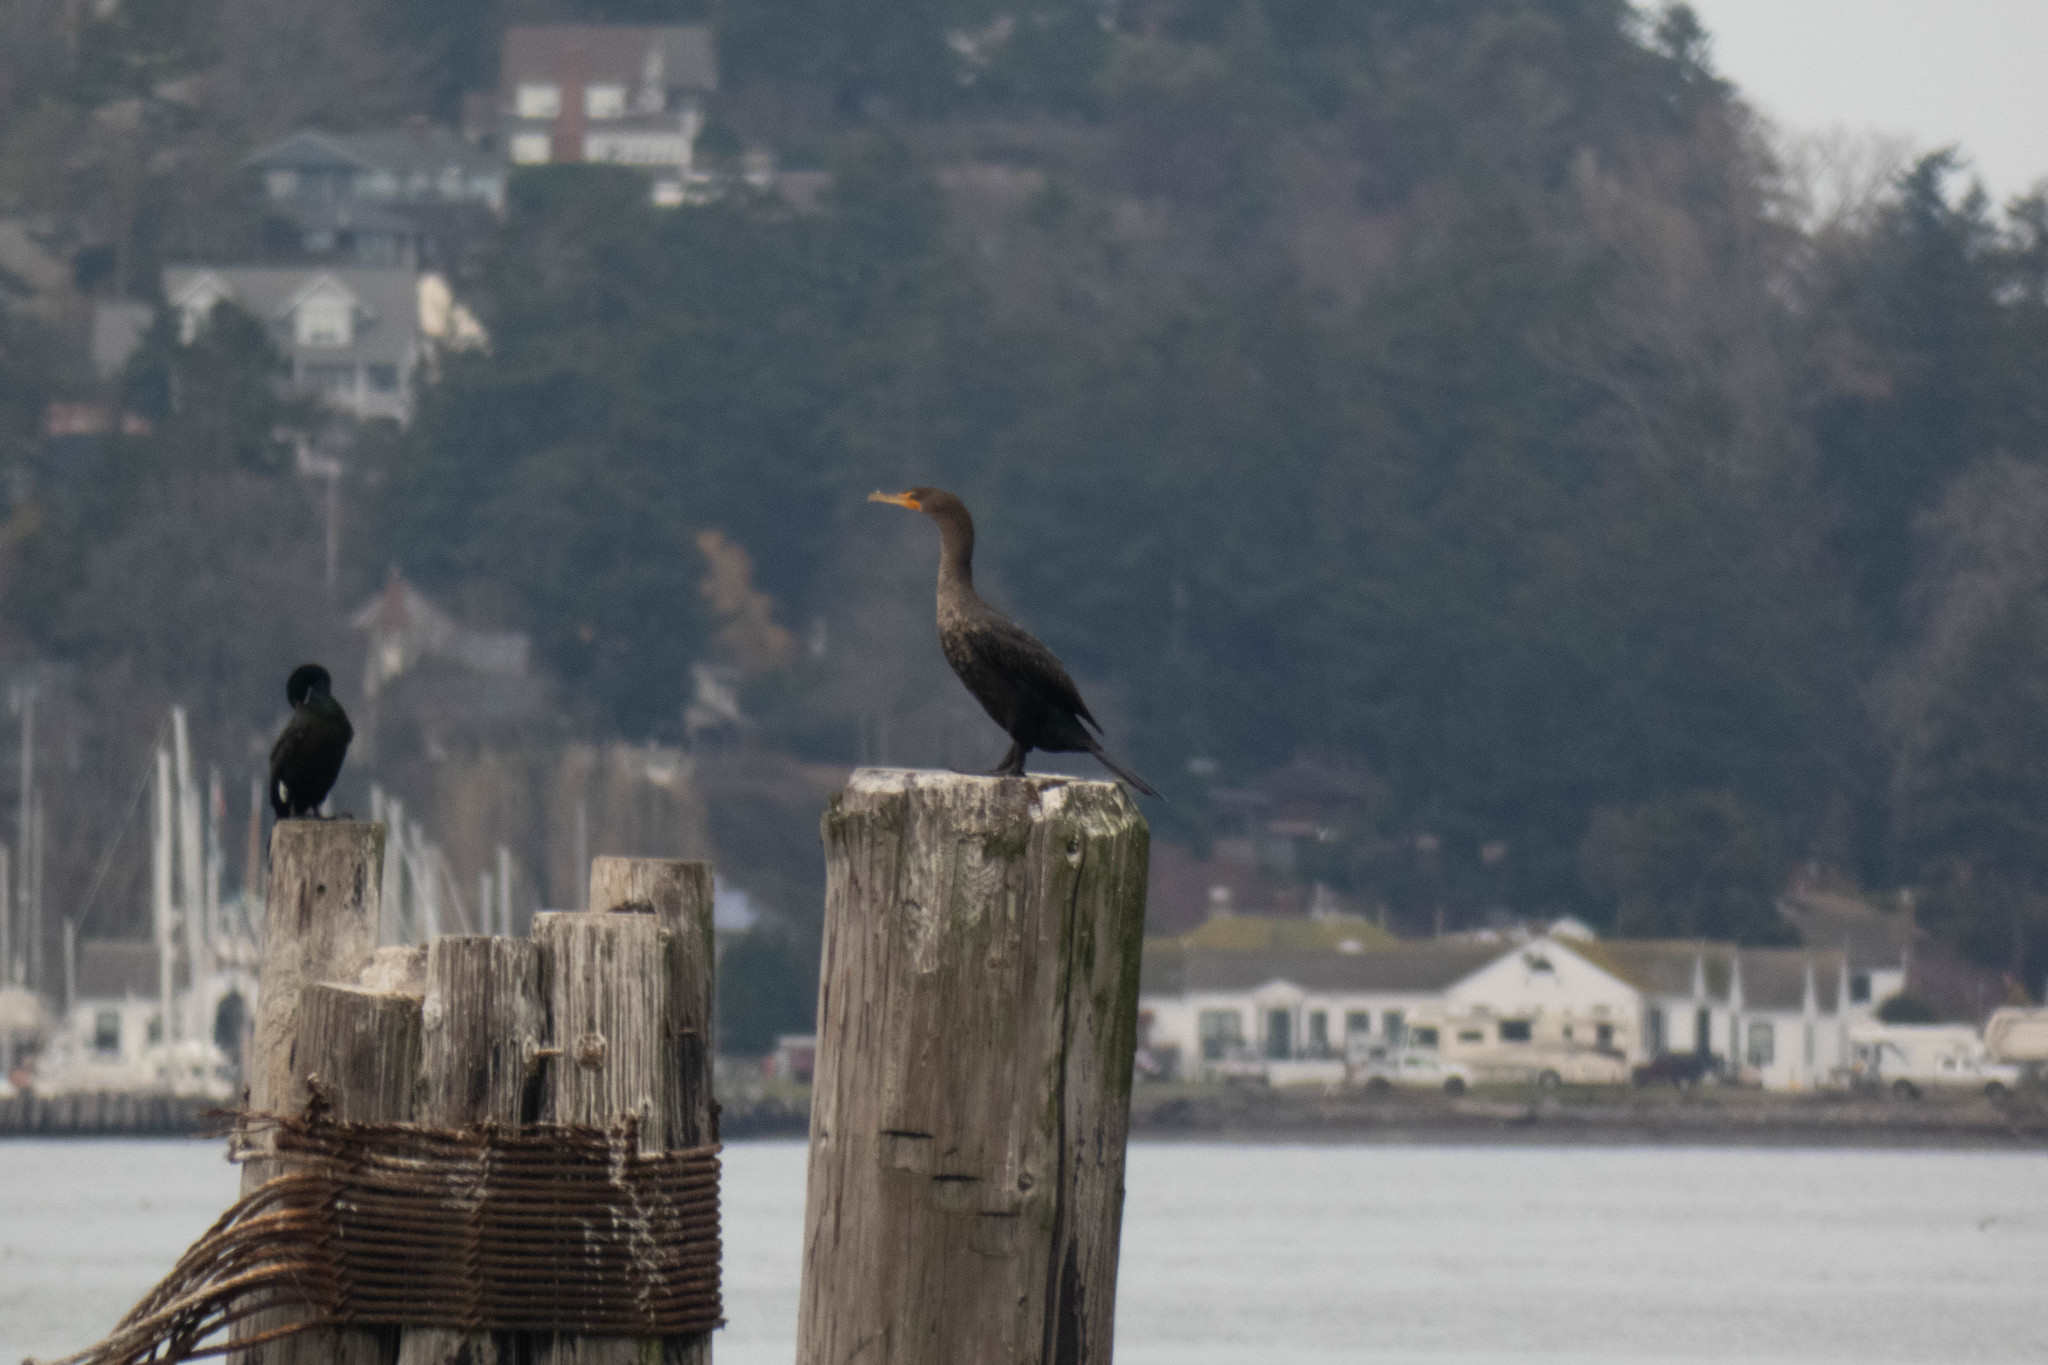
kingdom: Animalia
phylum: Chordata
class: Aves
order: Suliformes
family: Phalacrocoracidae
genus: Phalacrocorax
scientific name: Phalacrocorax auritus
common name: Double-crested cormorant
